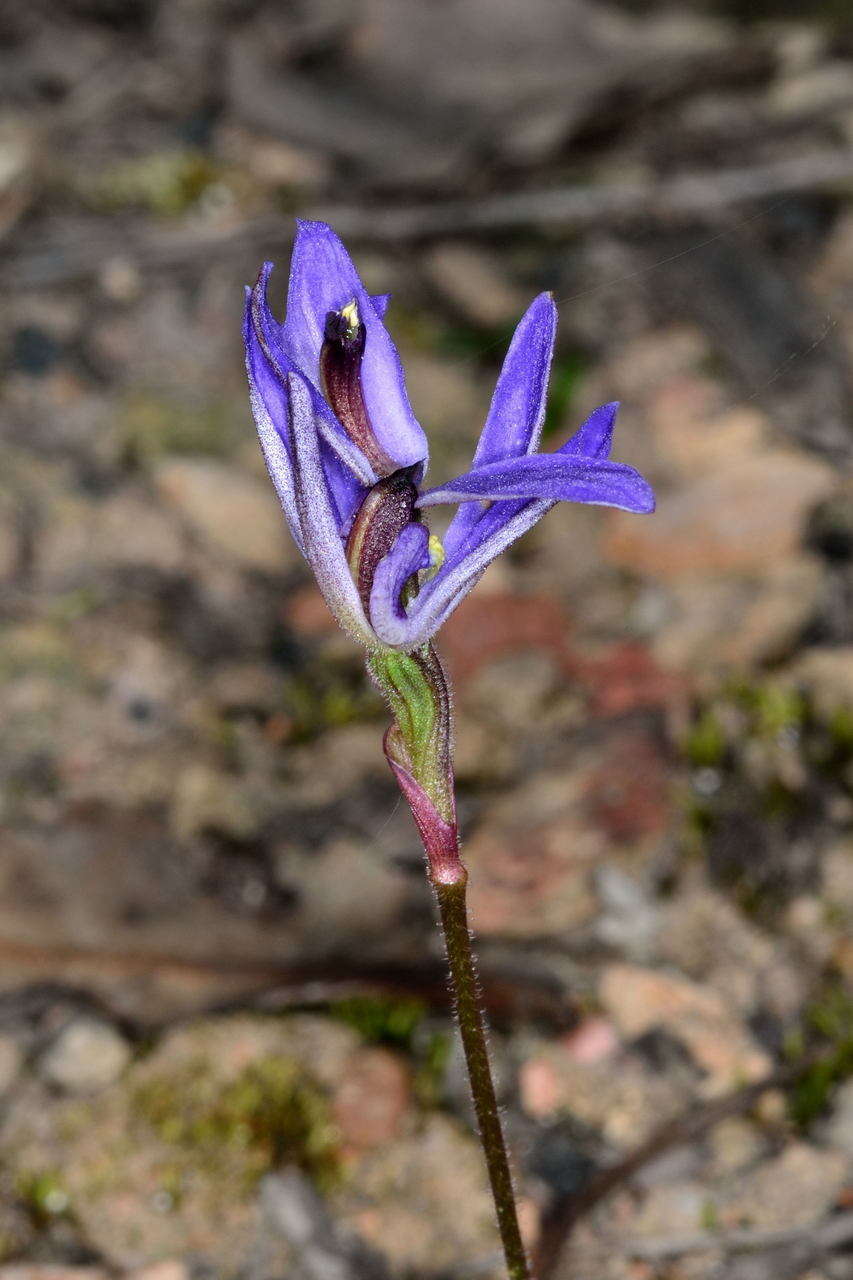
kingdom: Plantae
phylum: Tracheophyta
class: Liliopsida
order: Asparagales
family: Orchidaceae
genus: Caladenia
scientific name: Caladenia caerulea
